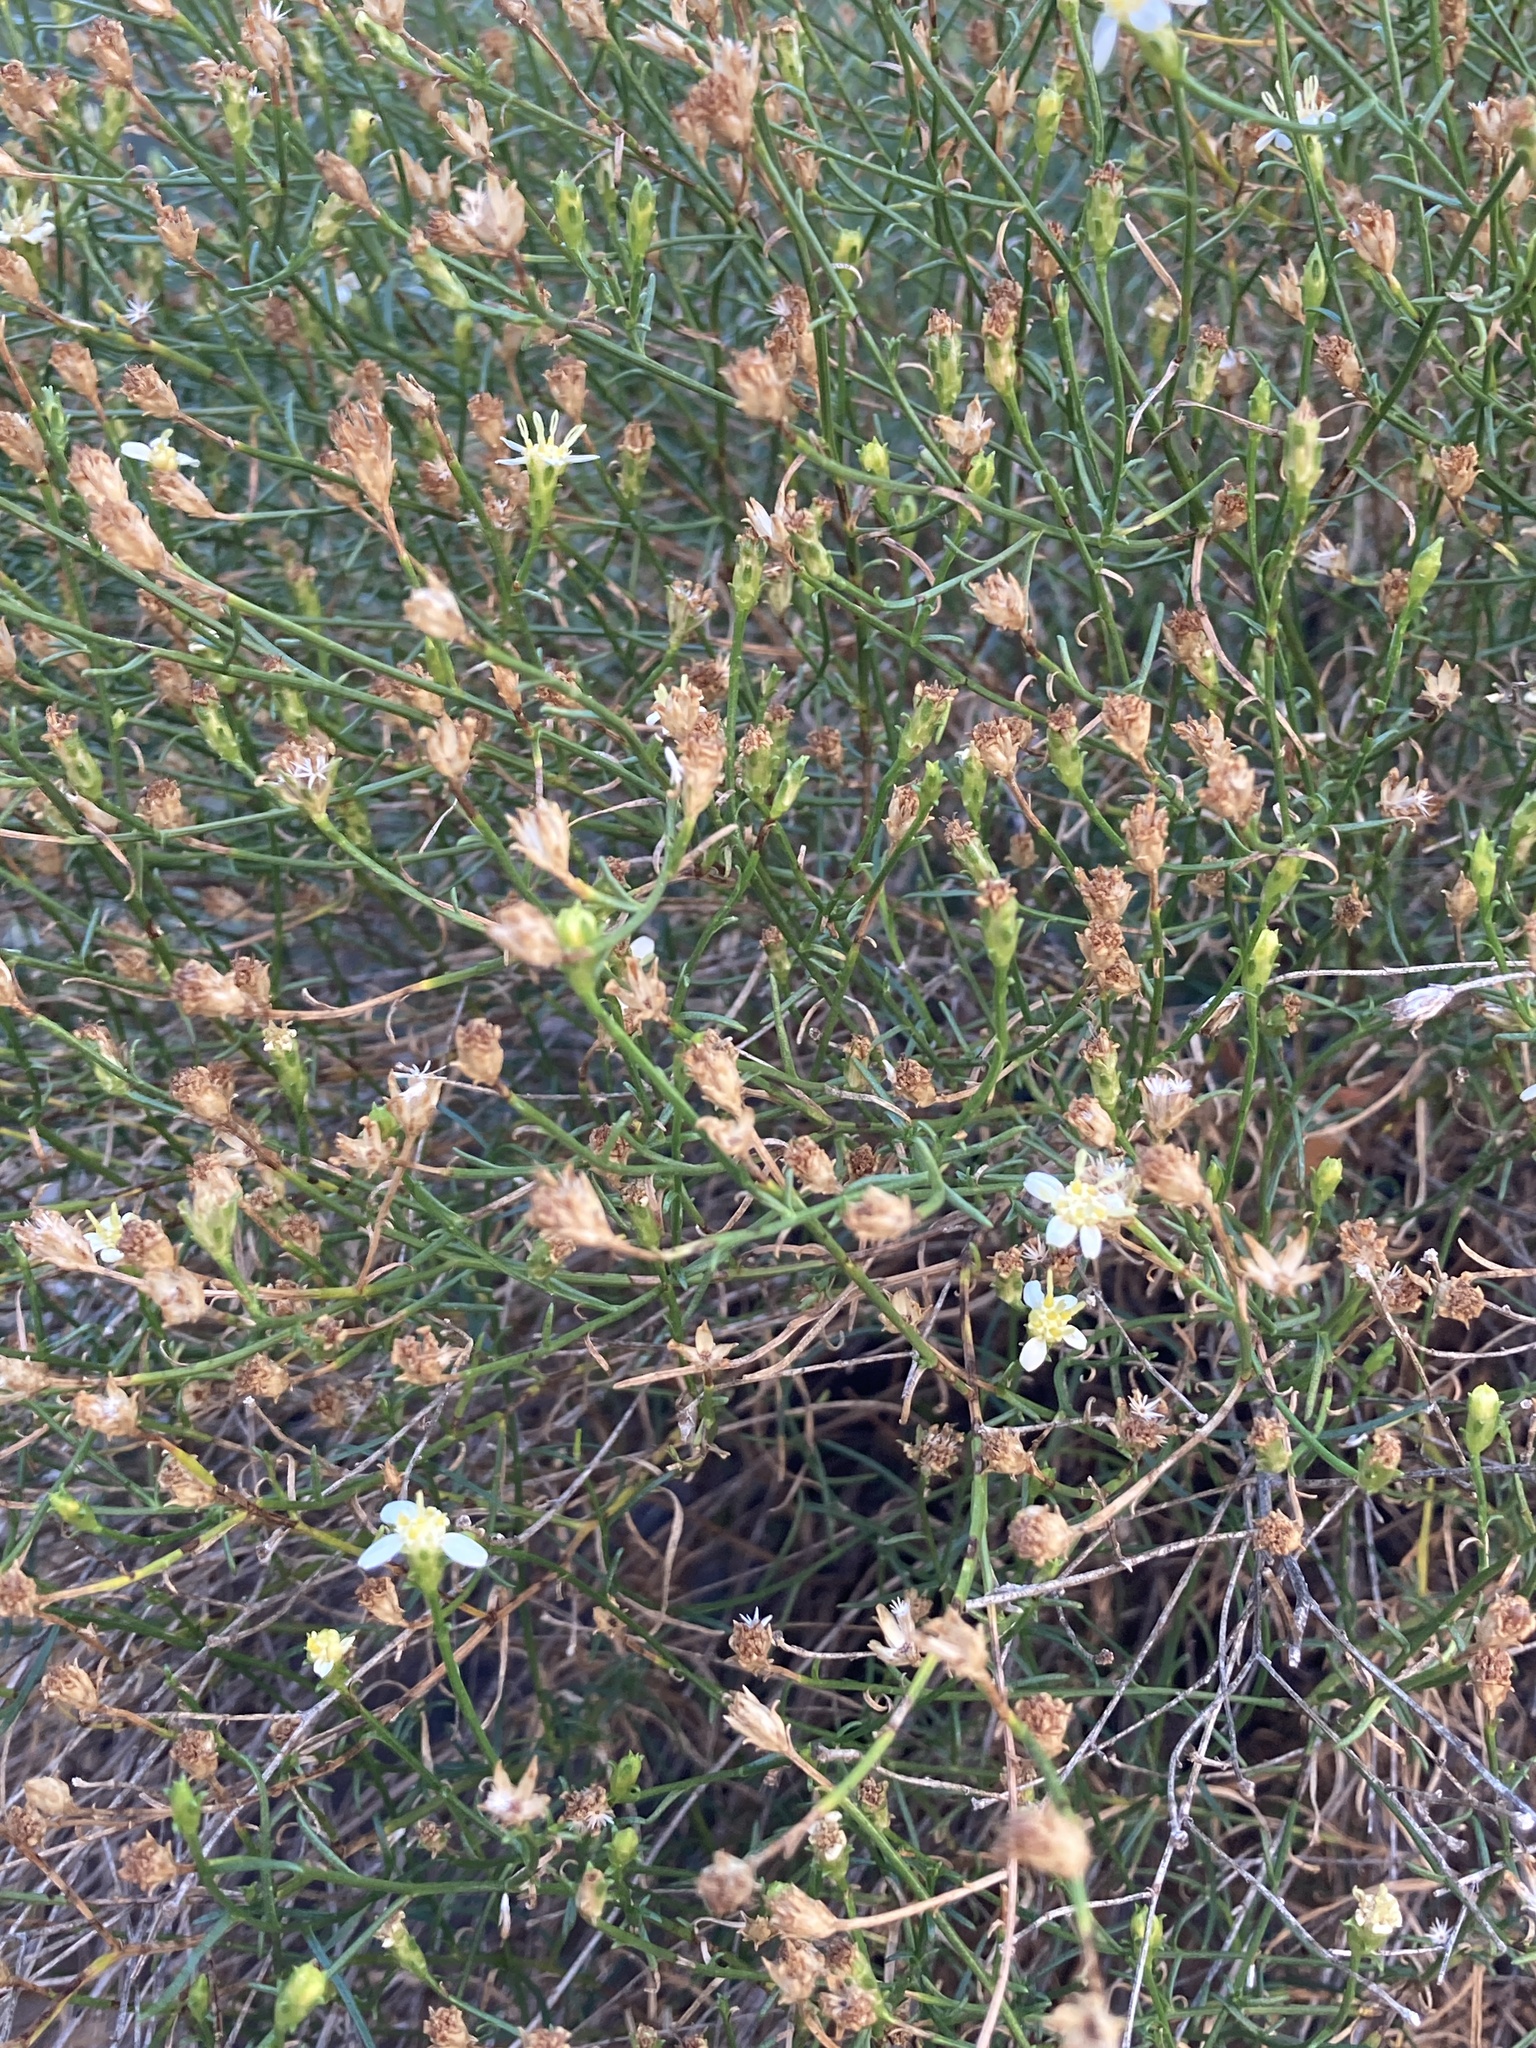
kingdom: Plantae
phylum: Tracheophyta
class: Magnoliopsida
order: Asterales
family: Asteraceae
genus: Gutierrezia
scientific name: Gutierrezia gilliesii
